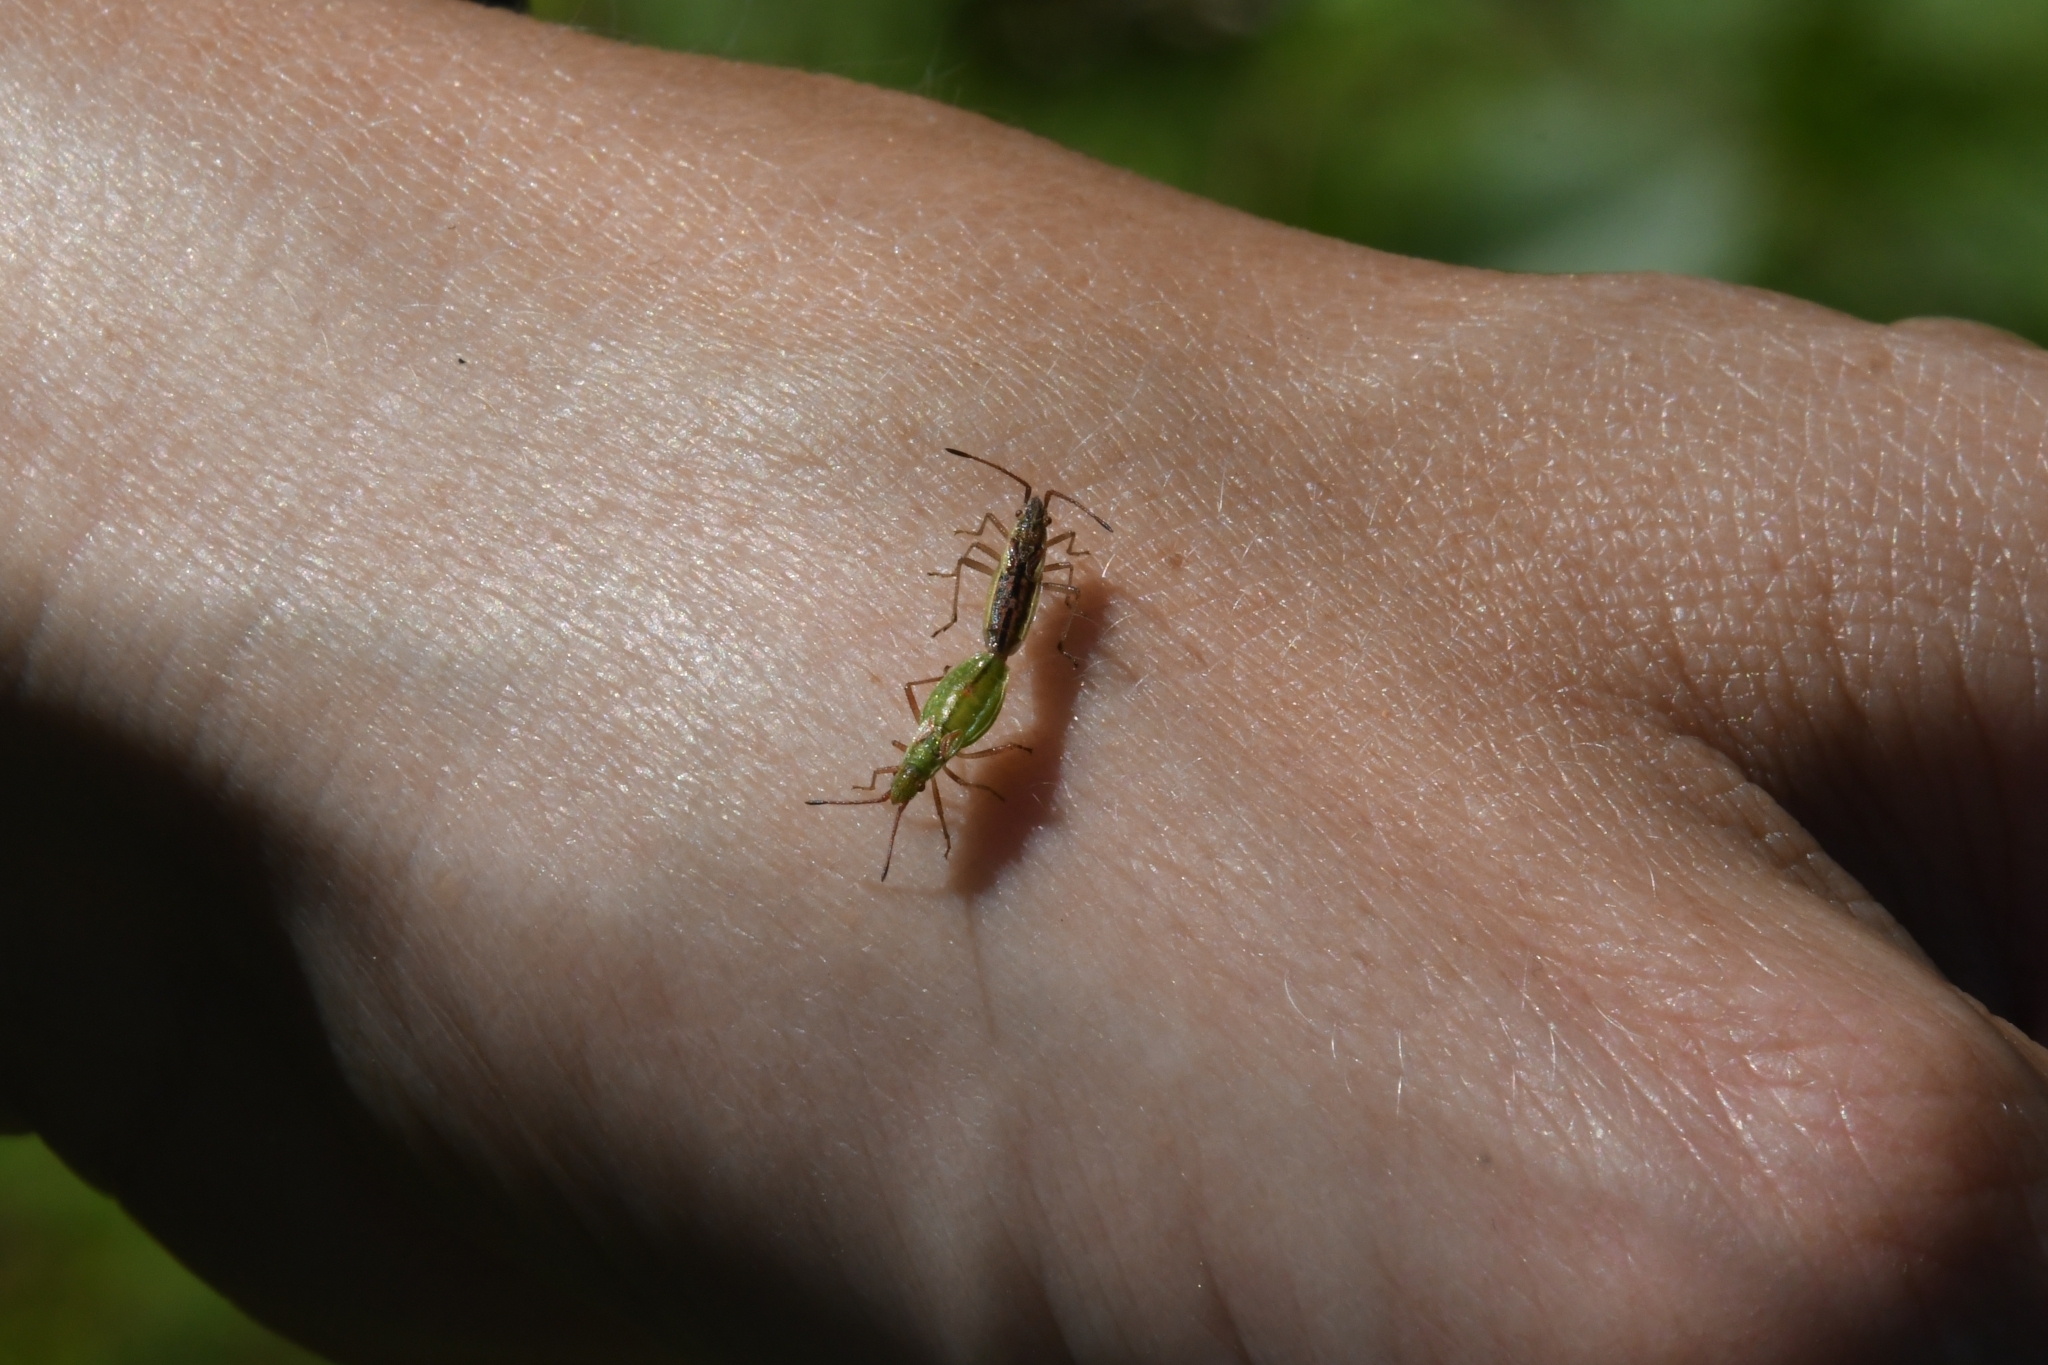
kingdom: Animalia
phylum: Arthropoda
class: Insecta
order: Hemiptera
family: Rhopalidae
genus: Myrmus
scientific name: Myrmus miriformis
